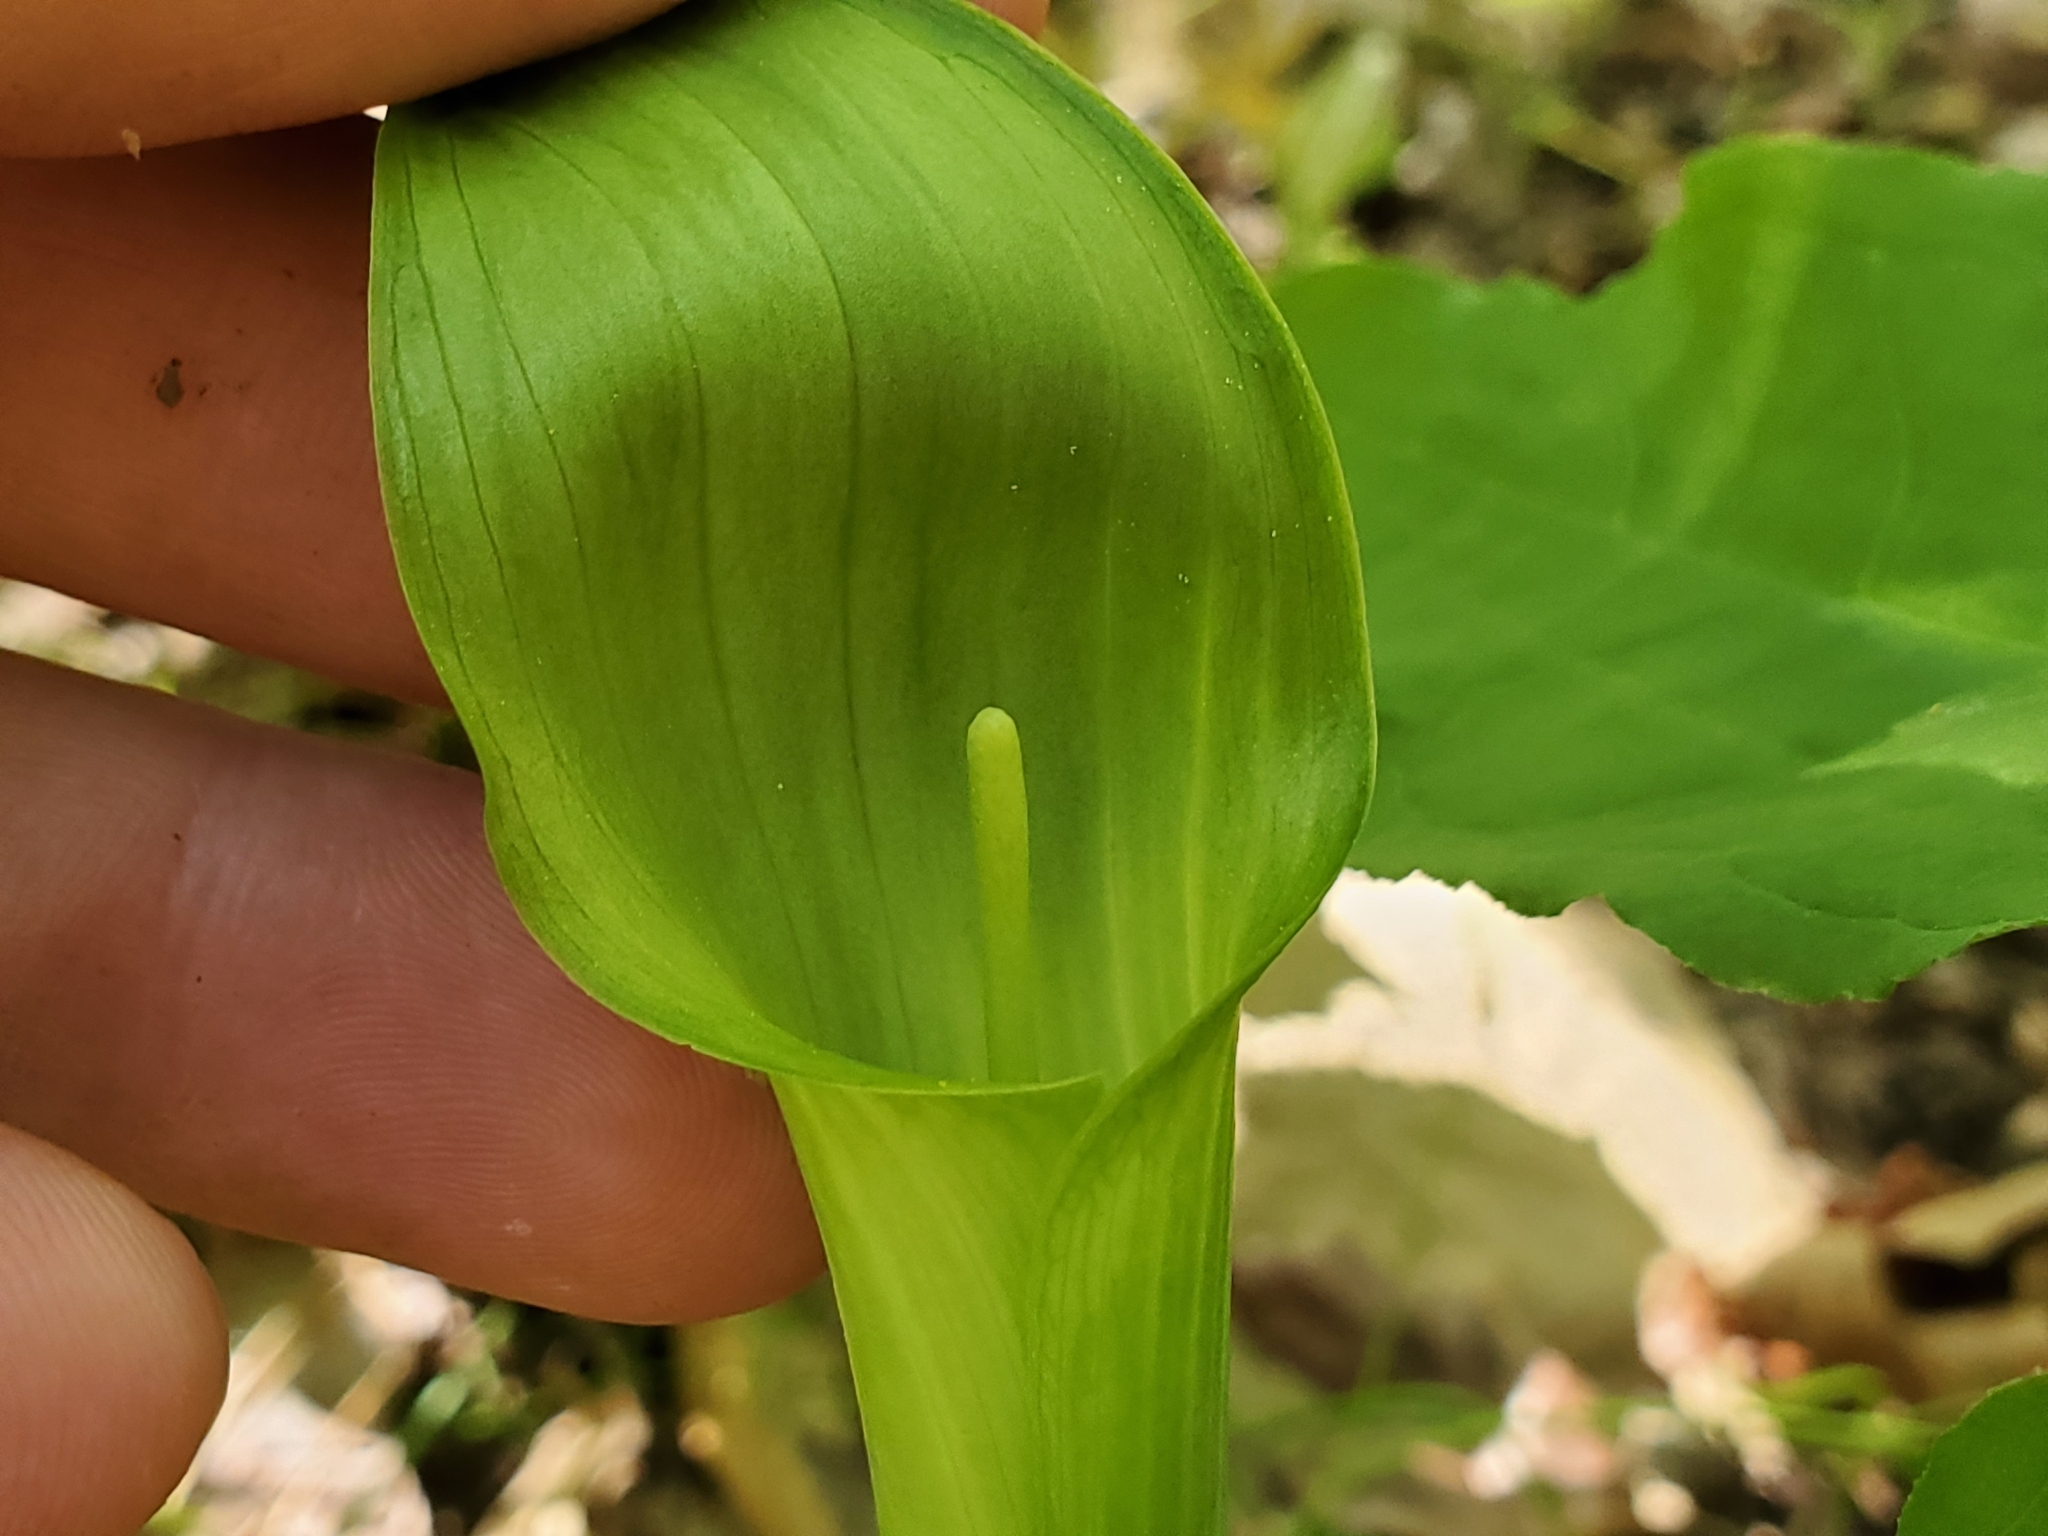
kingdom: Plantae
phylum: Tracheophyta
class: Liliopsida
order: Alismatales
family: Araceae
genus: Arisaema
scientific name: Arisaema quinatum
